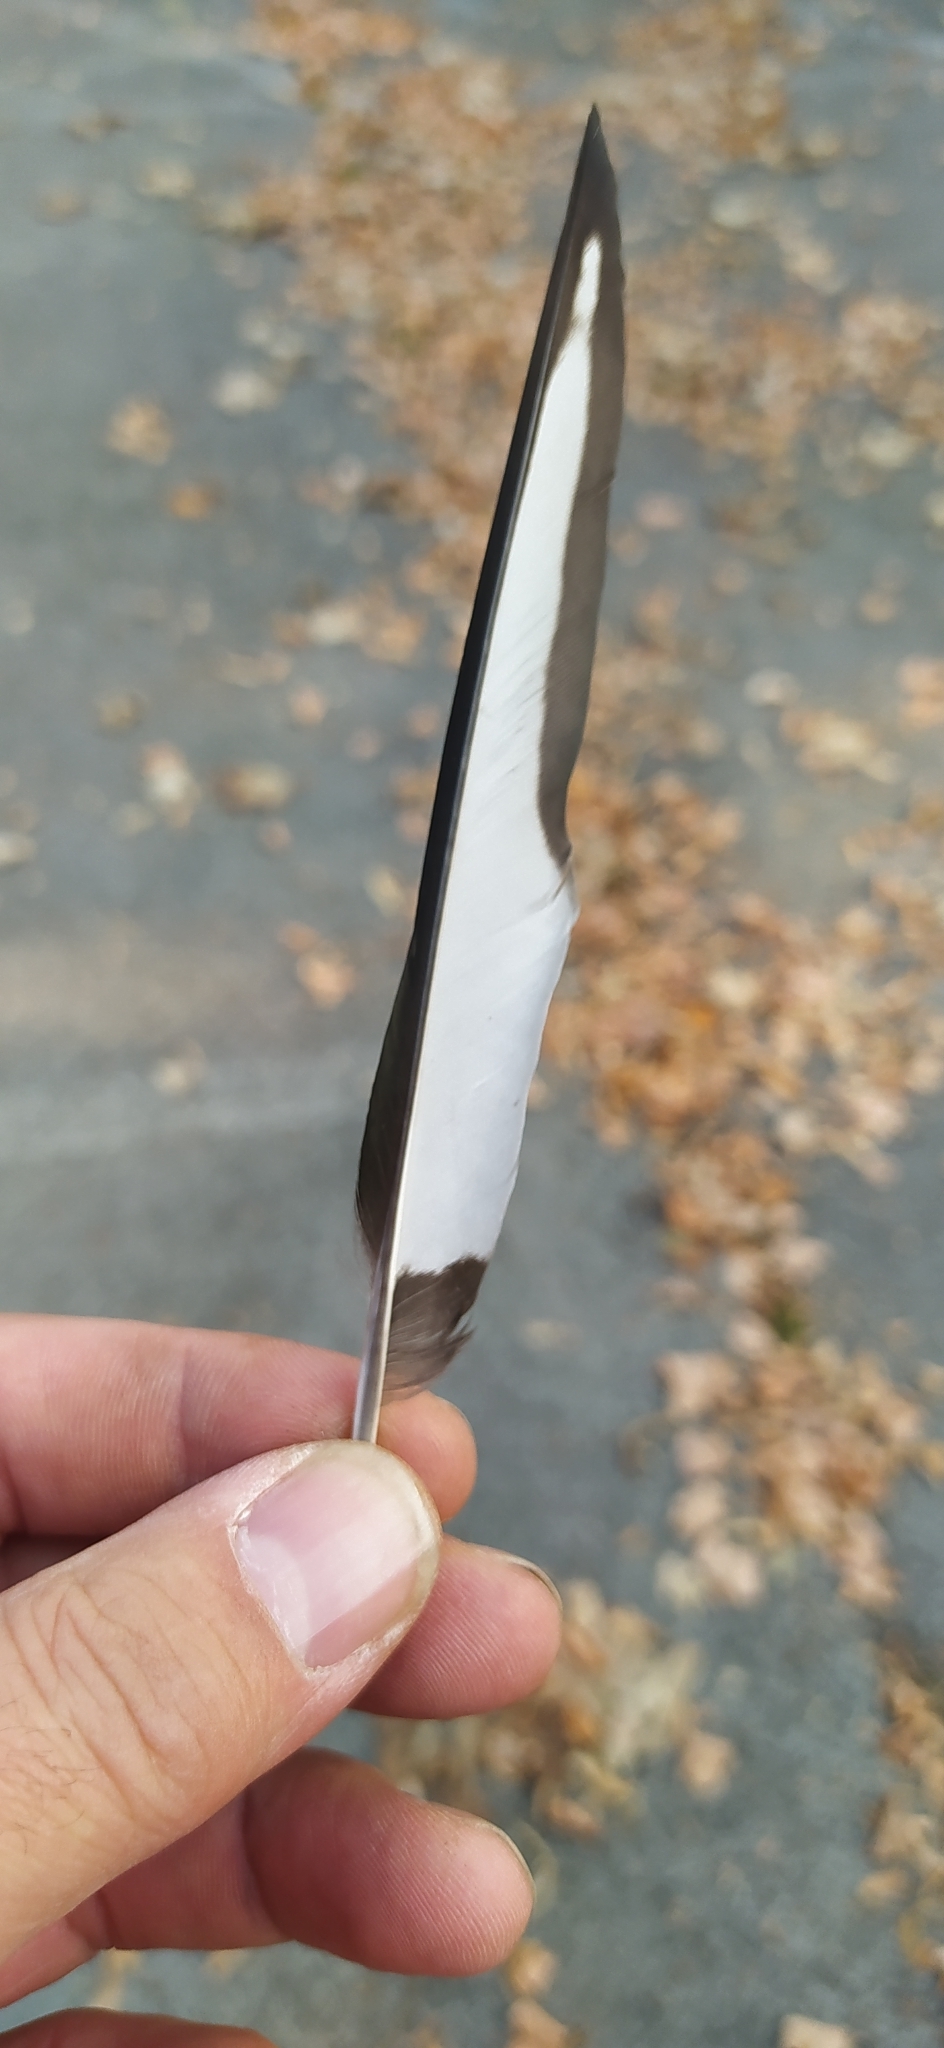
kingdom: Animalia
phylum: Chordata
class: Aves
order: Passeriformes
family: Corvidae
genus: Pica
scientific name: Pica pica
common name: Eurasian magpie
